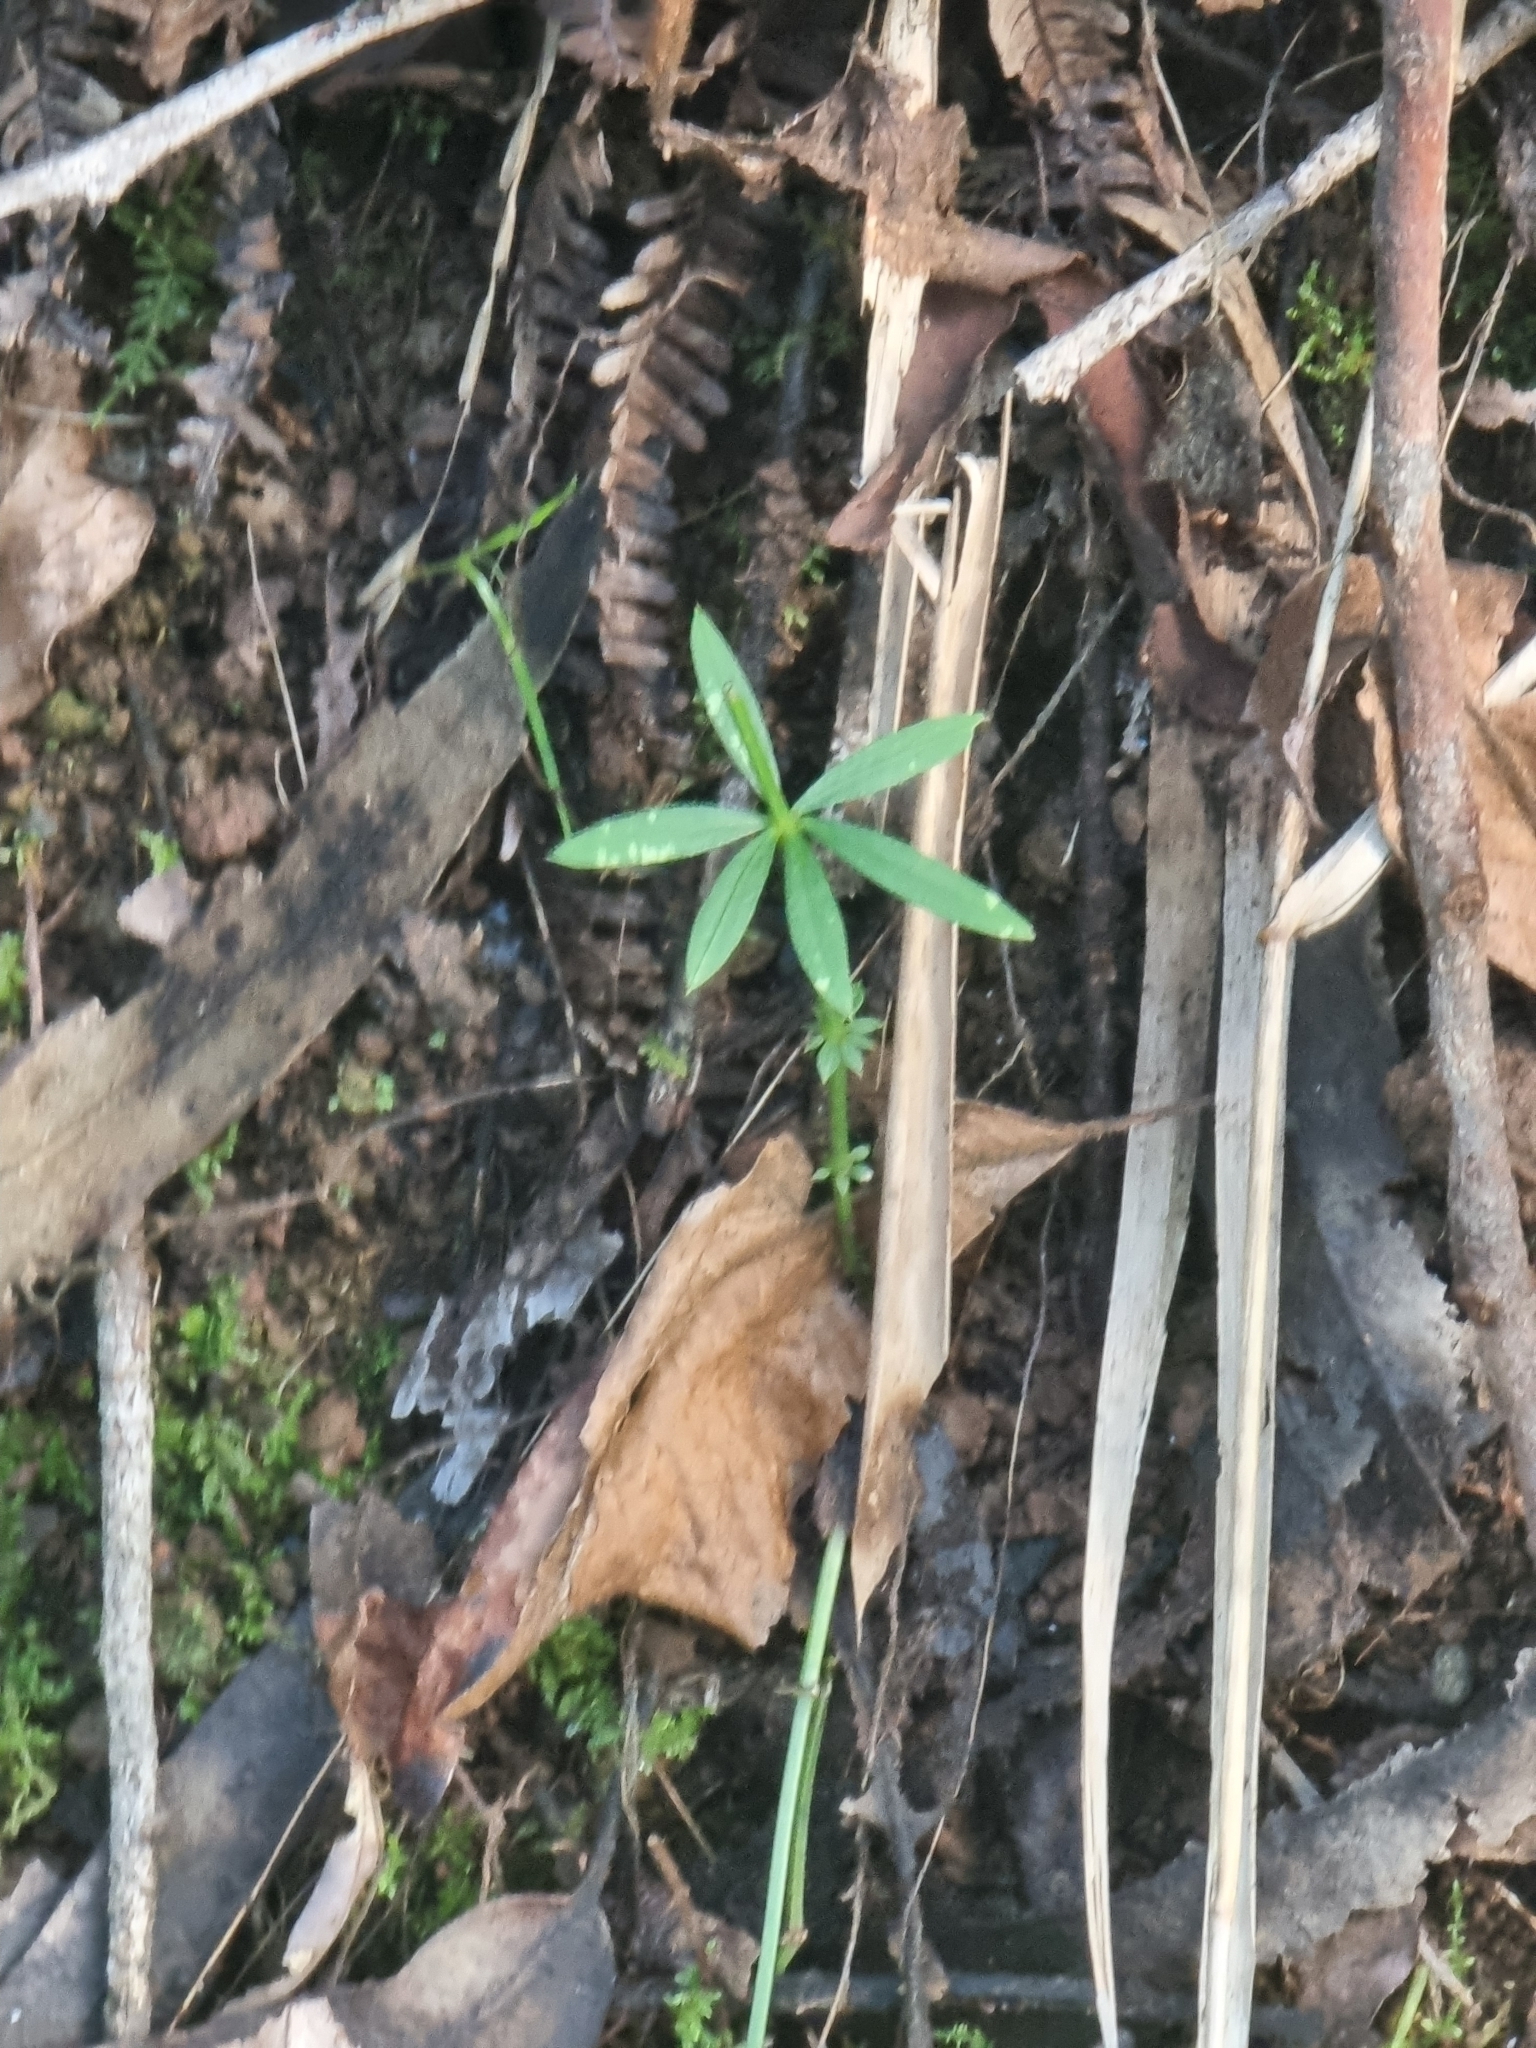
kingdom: Plantae
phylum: Tracheophyta
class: Magnoliopsida
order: Gentianales
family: Rubiaceae
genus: Rubia
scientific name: Rubia occidens
